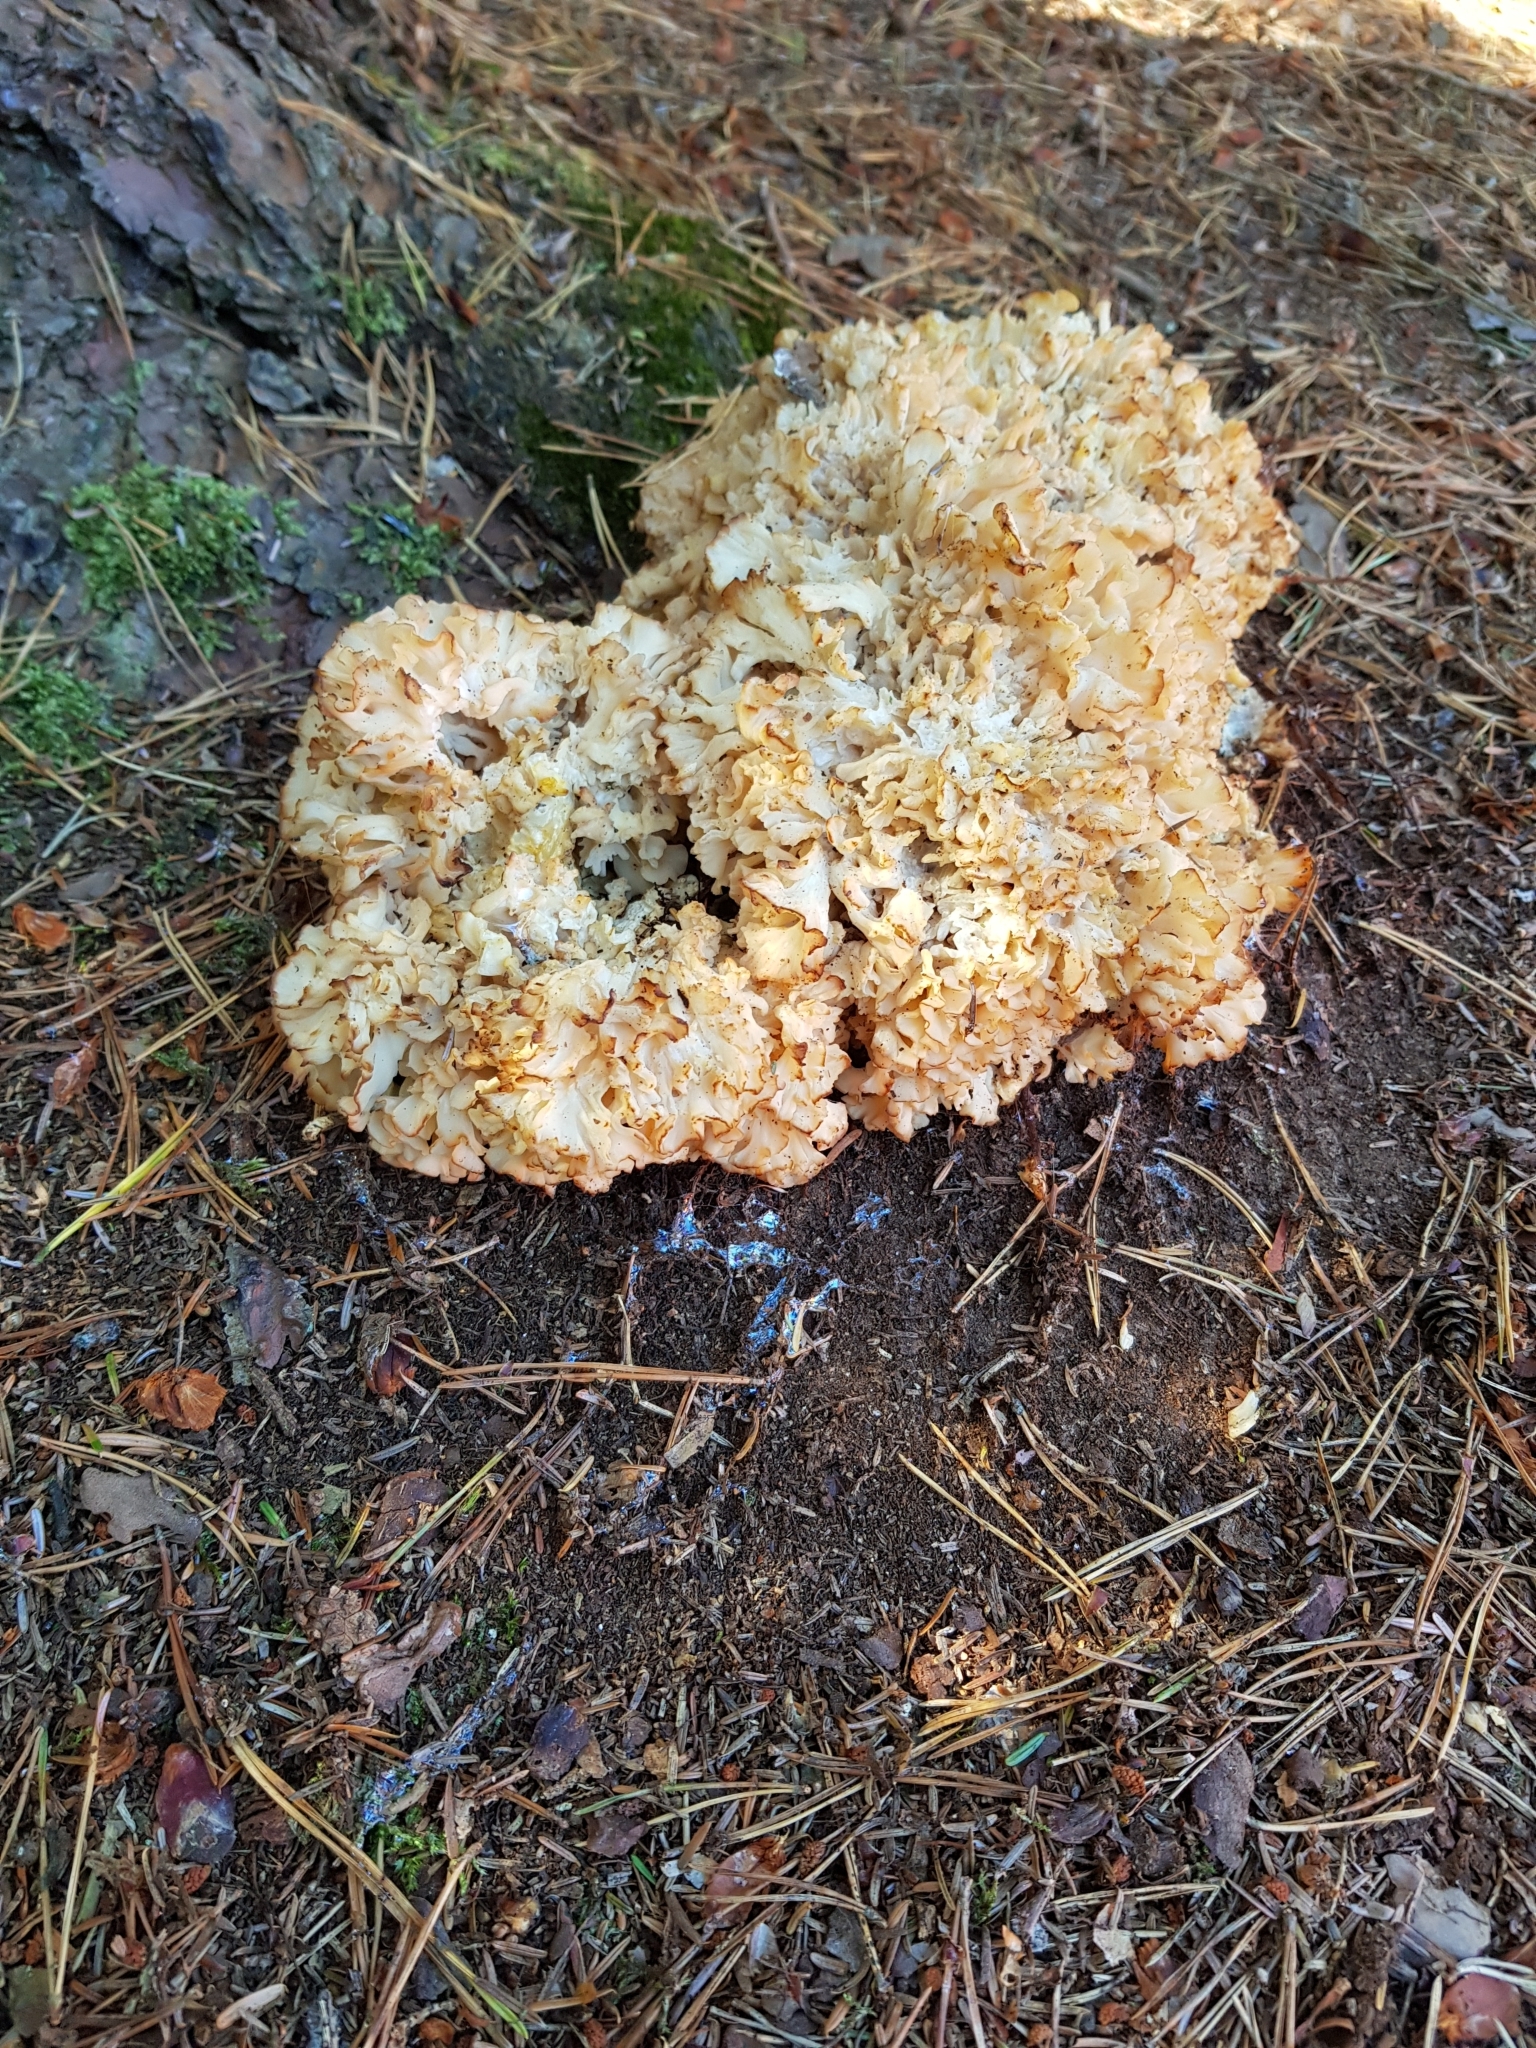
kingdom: Fungi
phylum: Basidiomycota
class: Agaricomycetes
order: Polyporales
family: Sparassidaceae
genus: Sparassis
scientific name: Sparassis crispa
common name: Brain fungus
